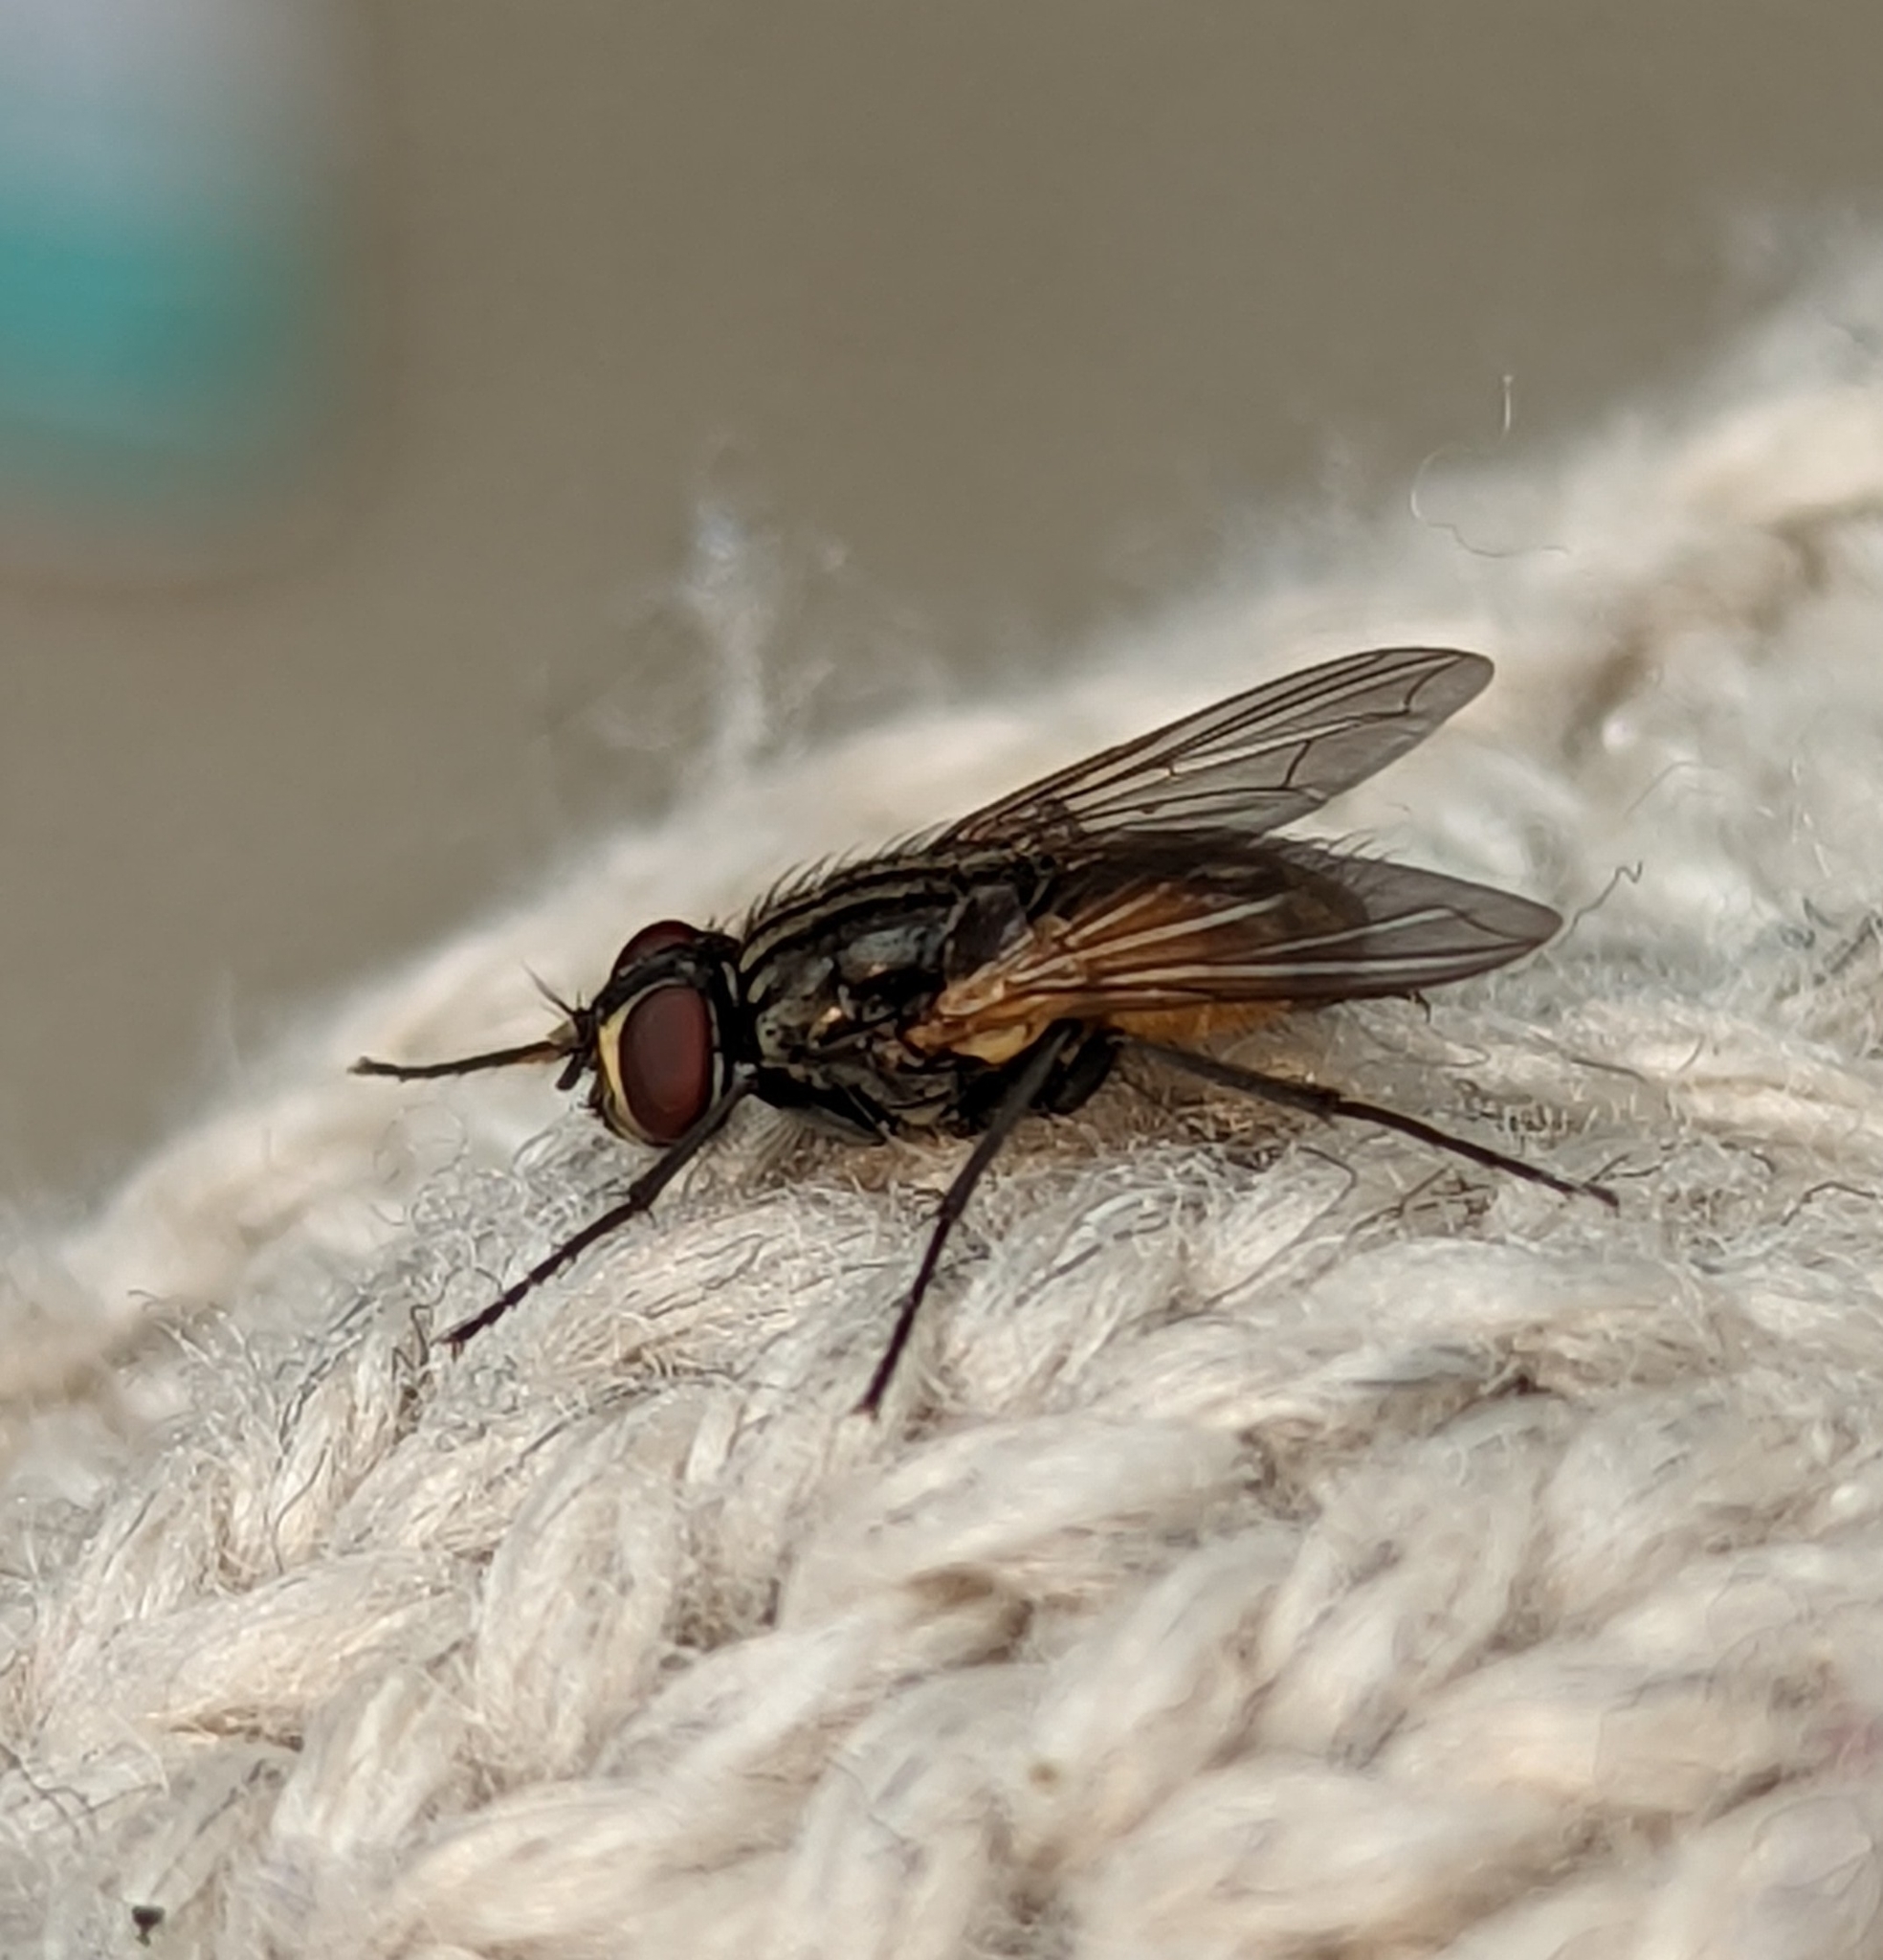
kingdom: Animalia
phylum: Arthropoda
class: Insecta
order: Diptera
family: Muscidae
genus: Musca
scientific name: Musca domestica
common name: House fly
